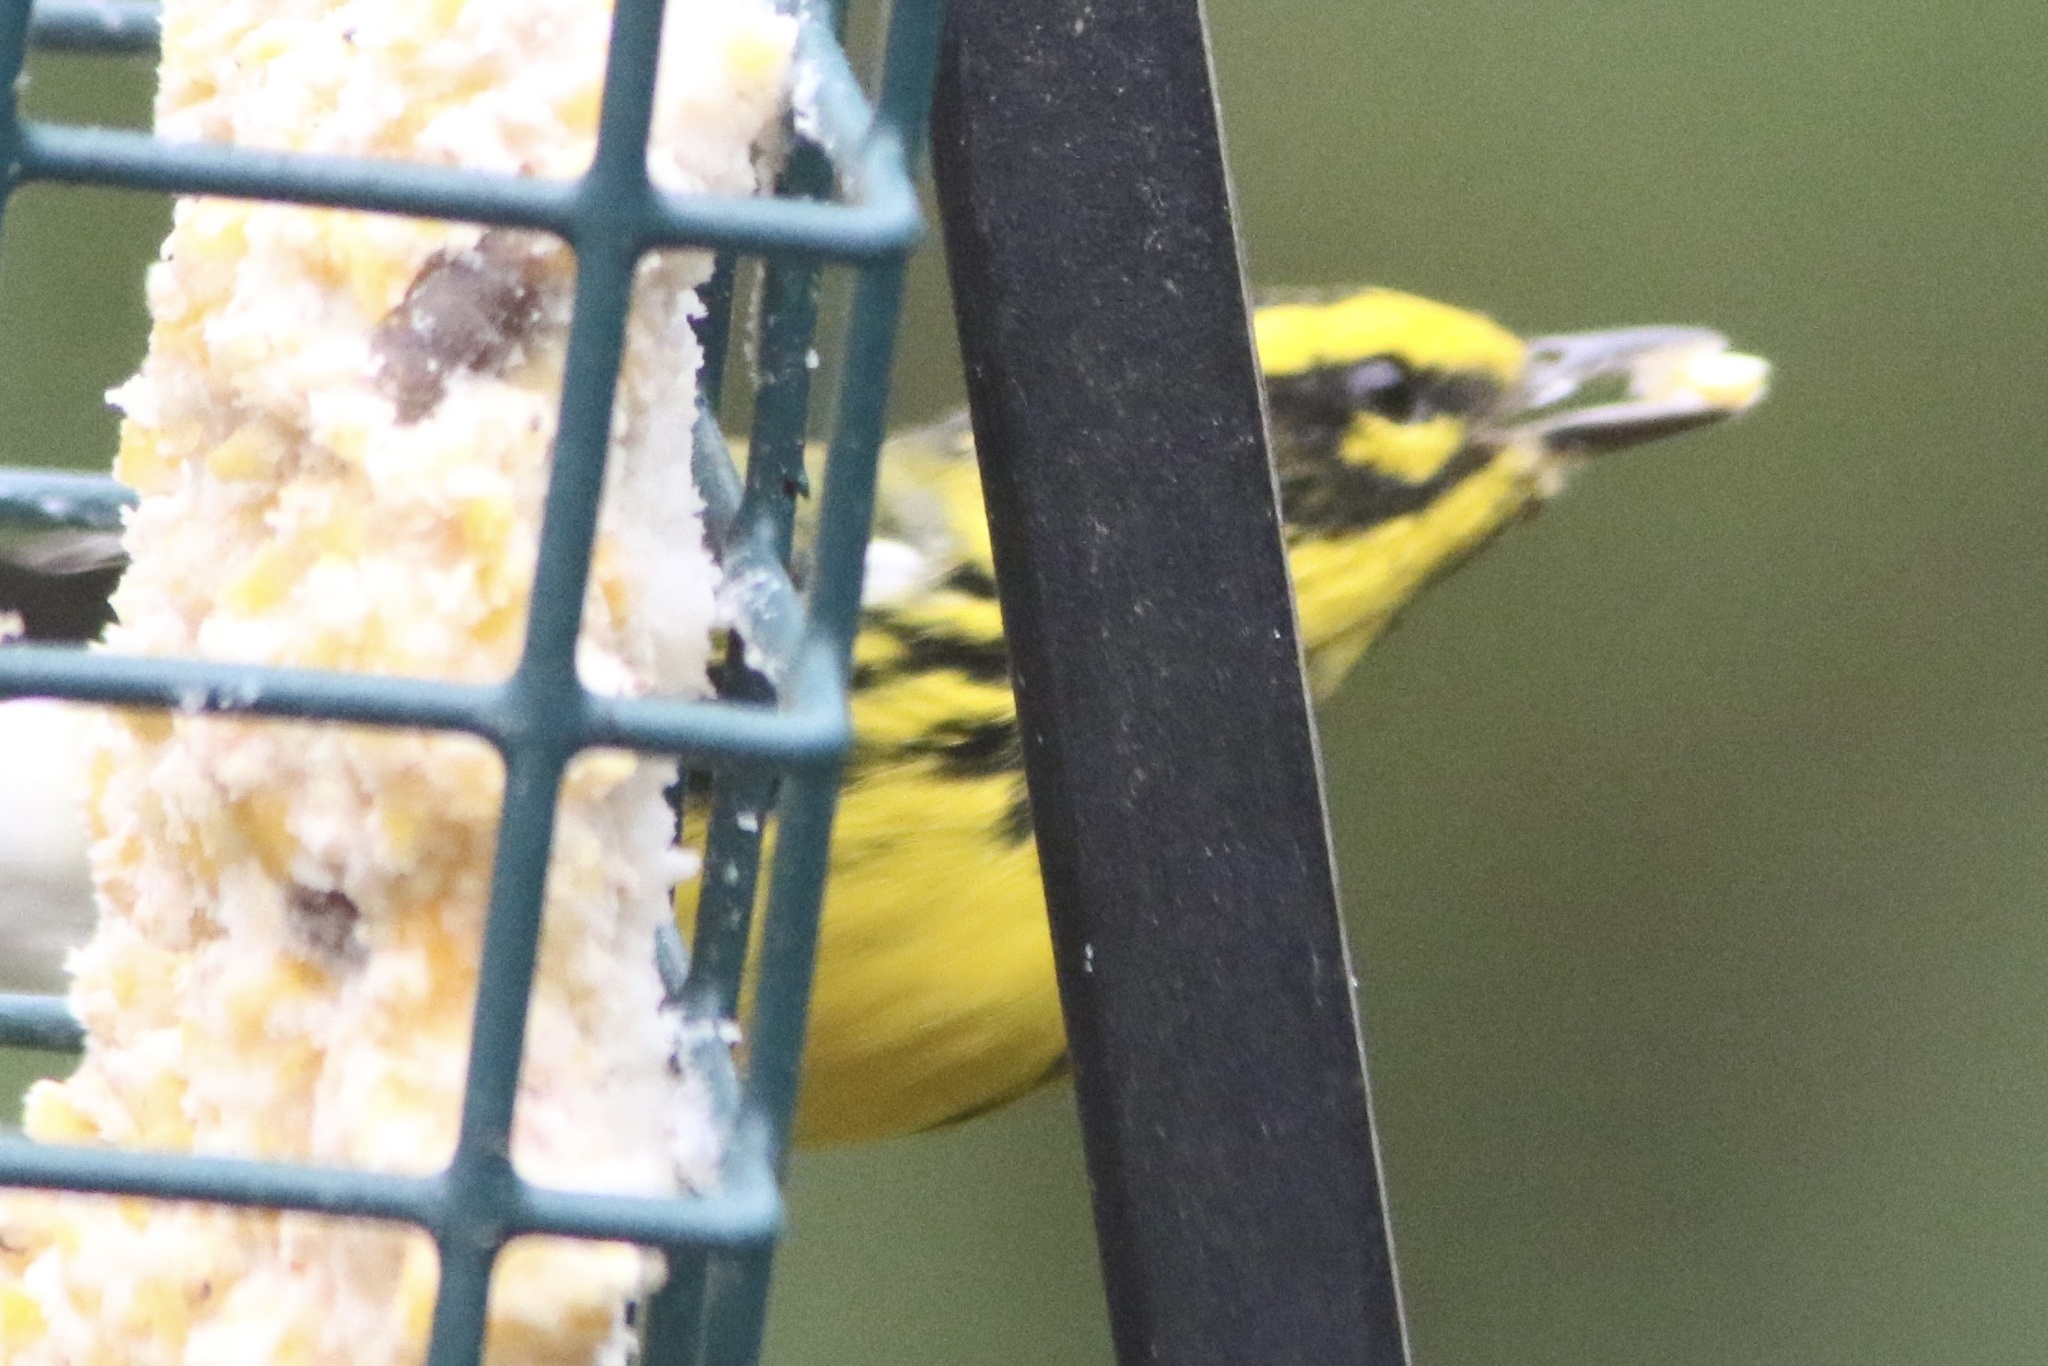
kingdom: Animalia
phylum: Chordata
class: Aves
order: Passeriformes
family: Parulidae
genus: Setophaga
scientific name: Setophaga townsendi
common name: Townsend's warbler
